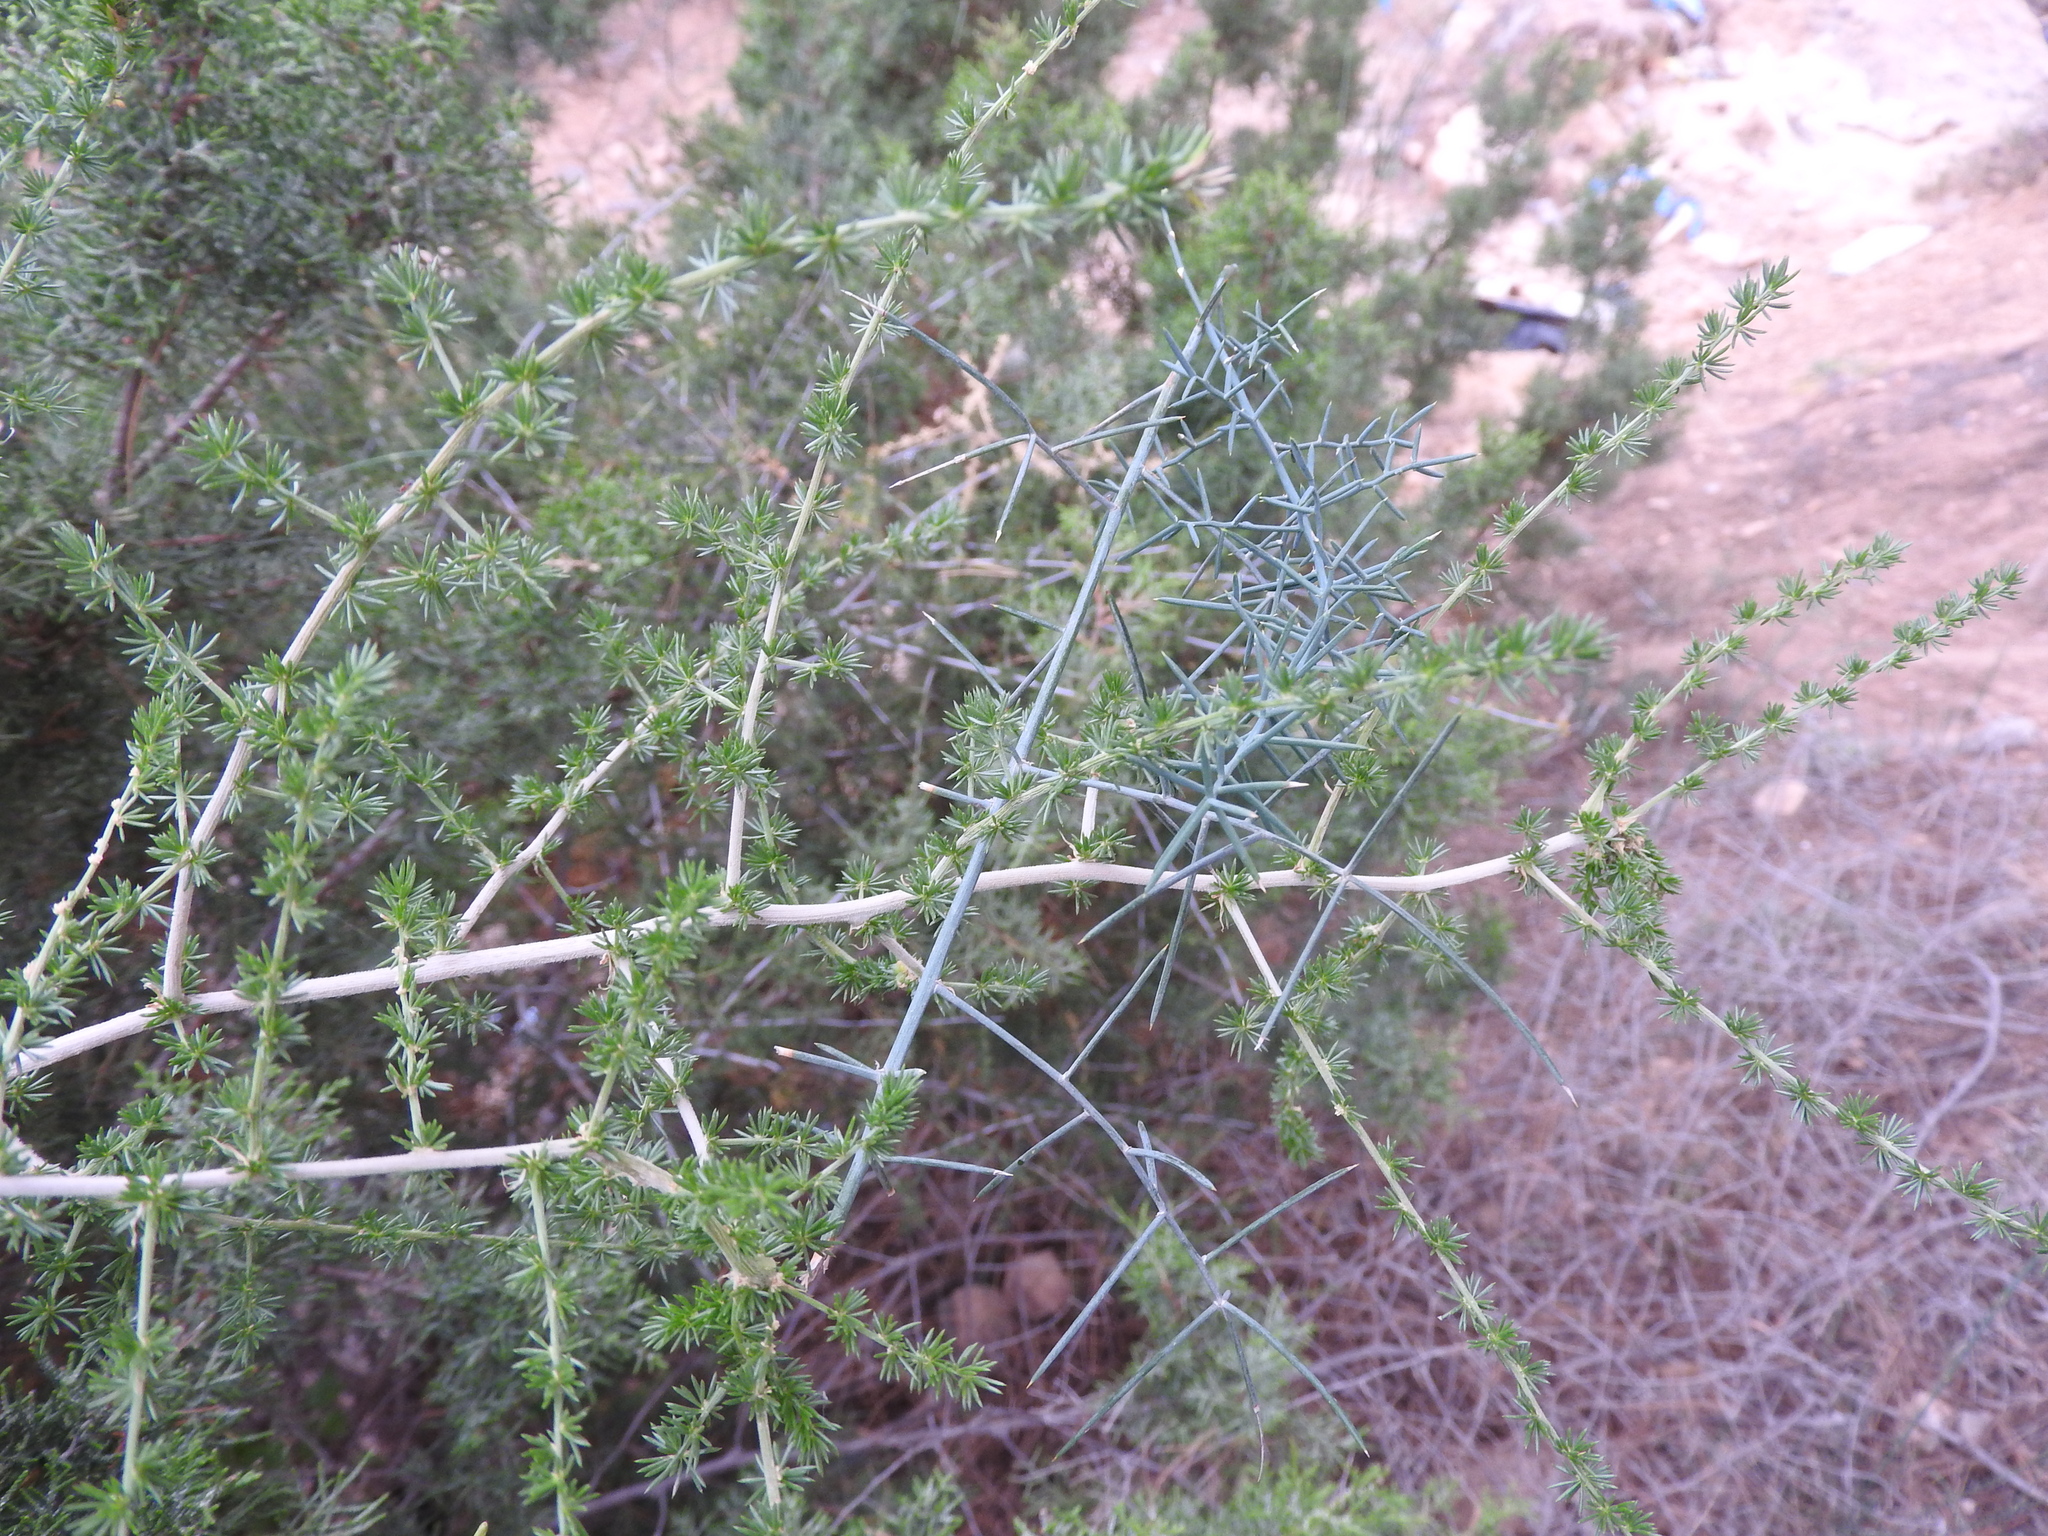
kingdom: Plantae
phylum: Tracheophyta
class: Liliopsida
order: Asparagales
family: Asparagaceae
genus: Asparagus
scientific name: Asparagus acutifolius
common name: Wild asparagus
